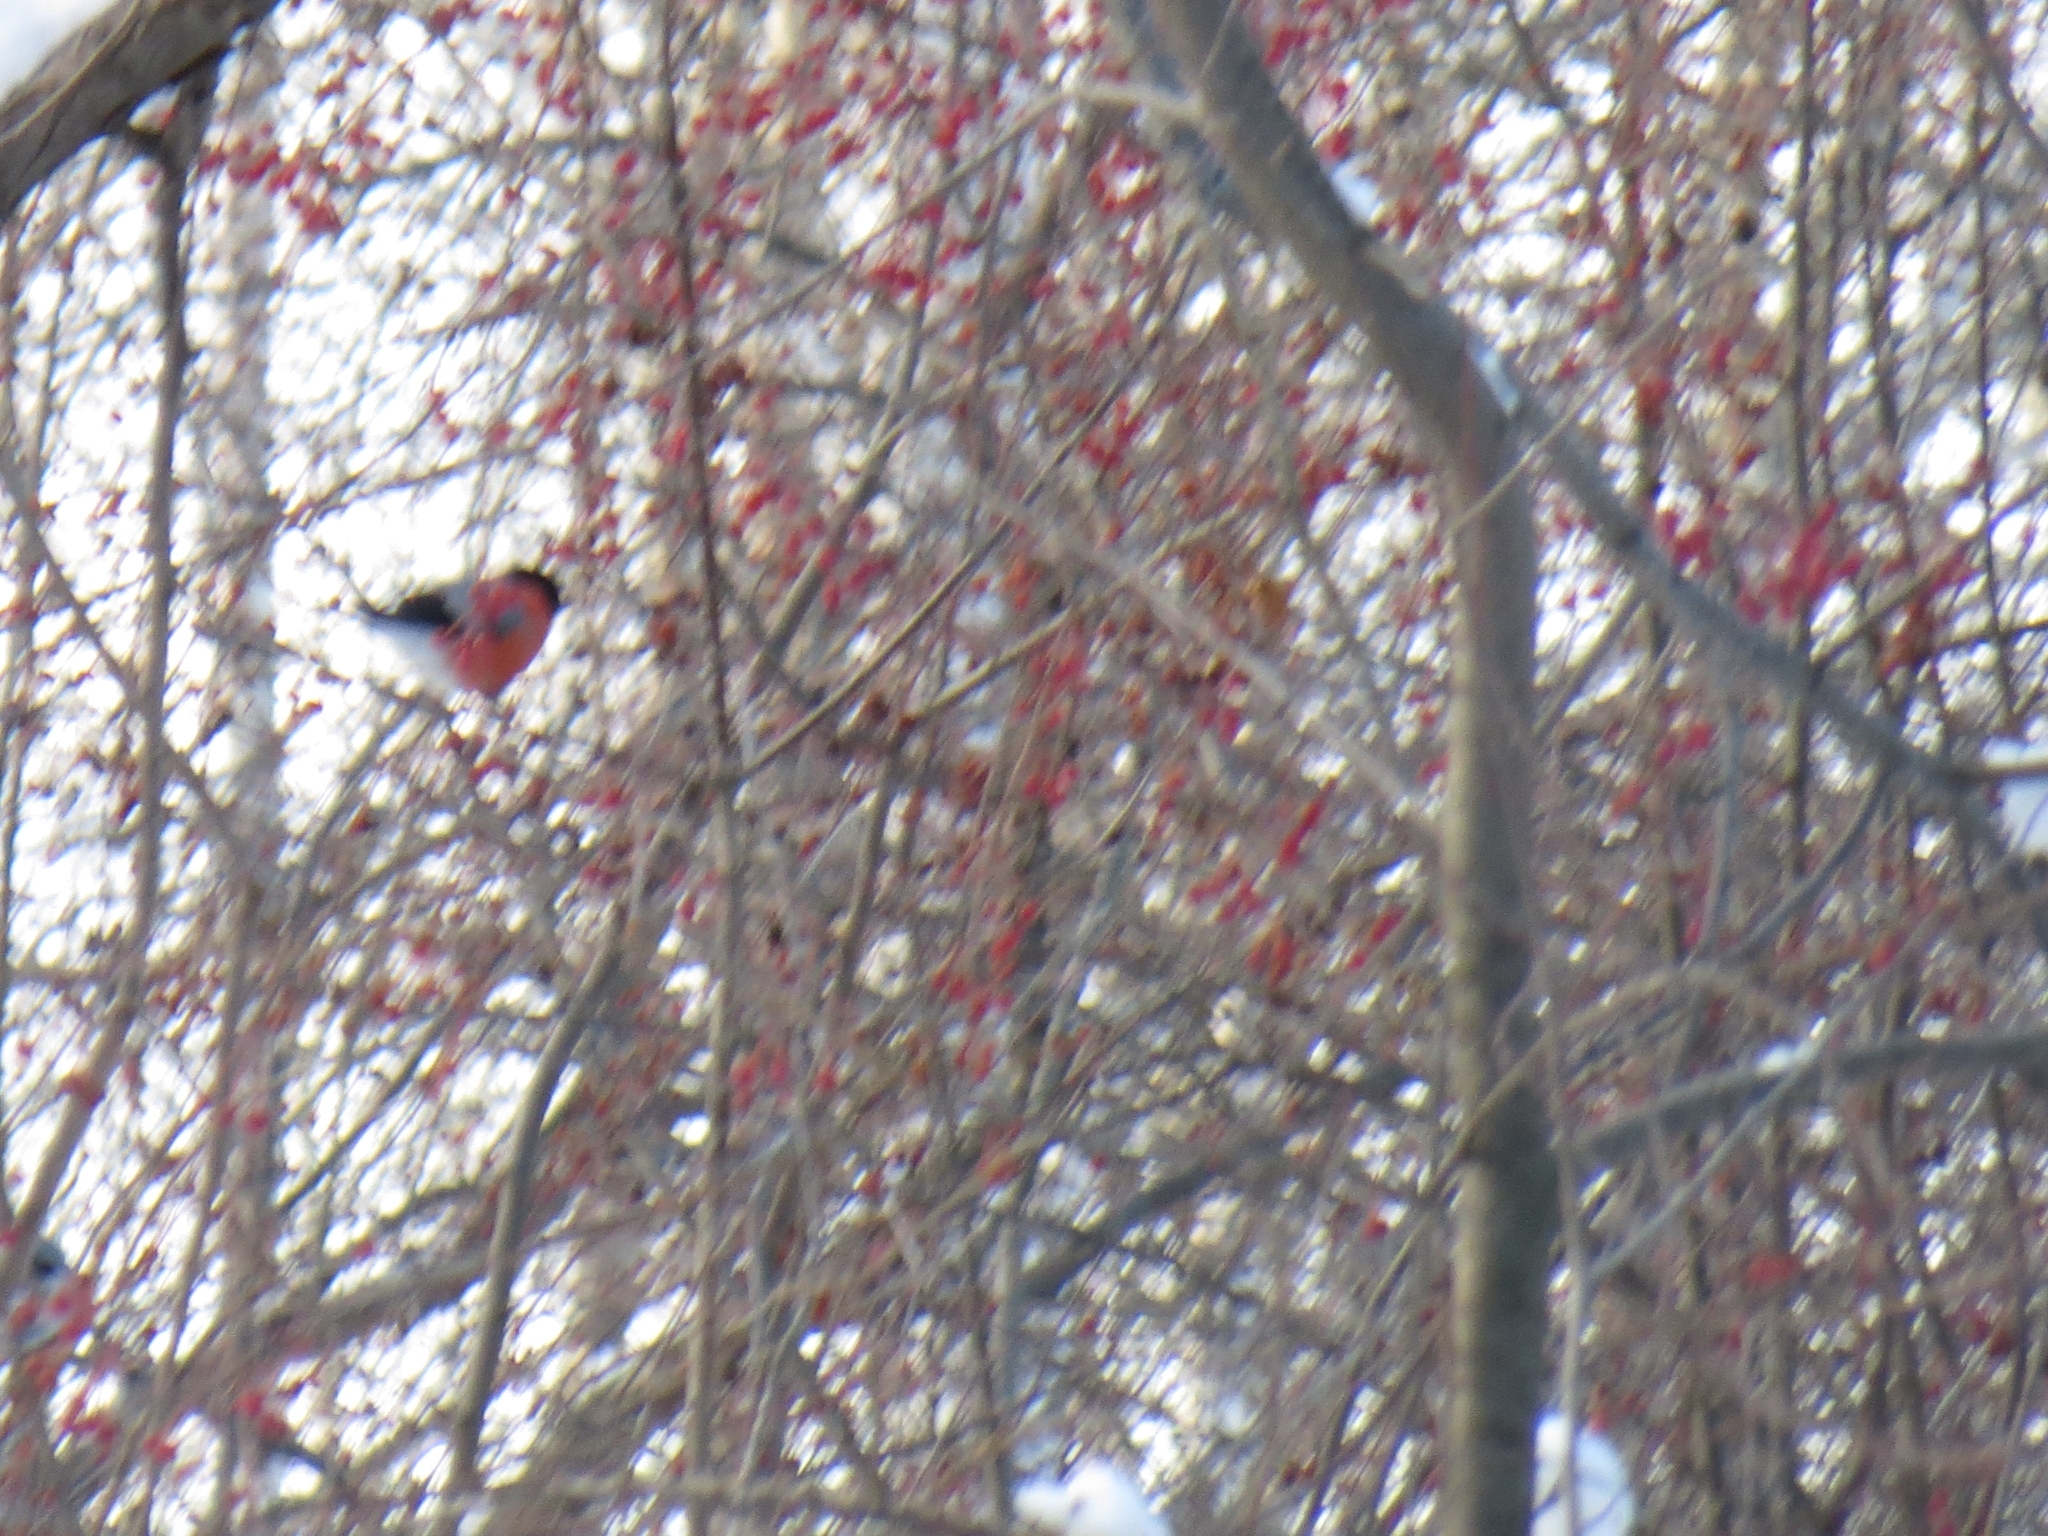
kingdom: Animalia
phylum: Chordata
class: Aves
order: Passeriformes
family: Fringillidae
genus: Pyrrhula
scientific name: Pyrrhula pyrrhula
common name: Eurasian bullfinch
